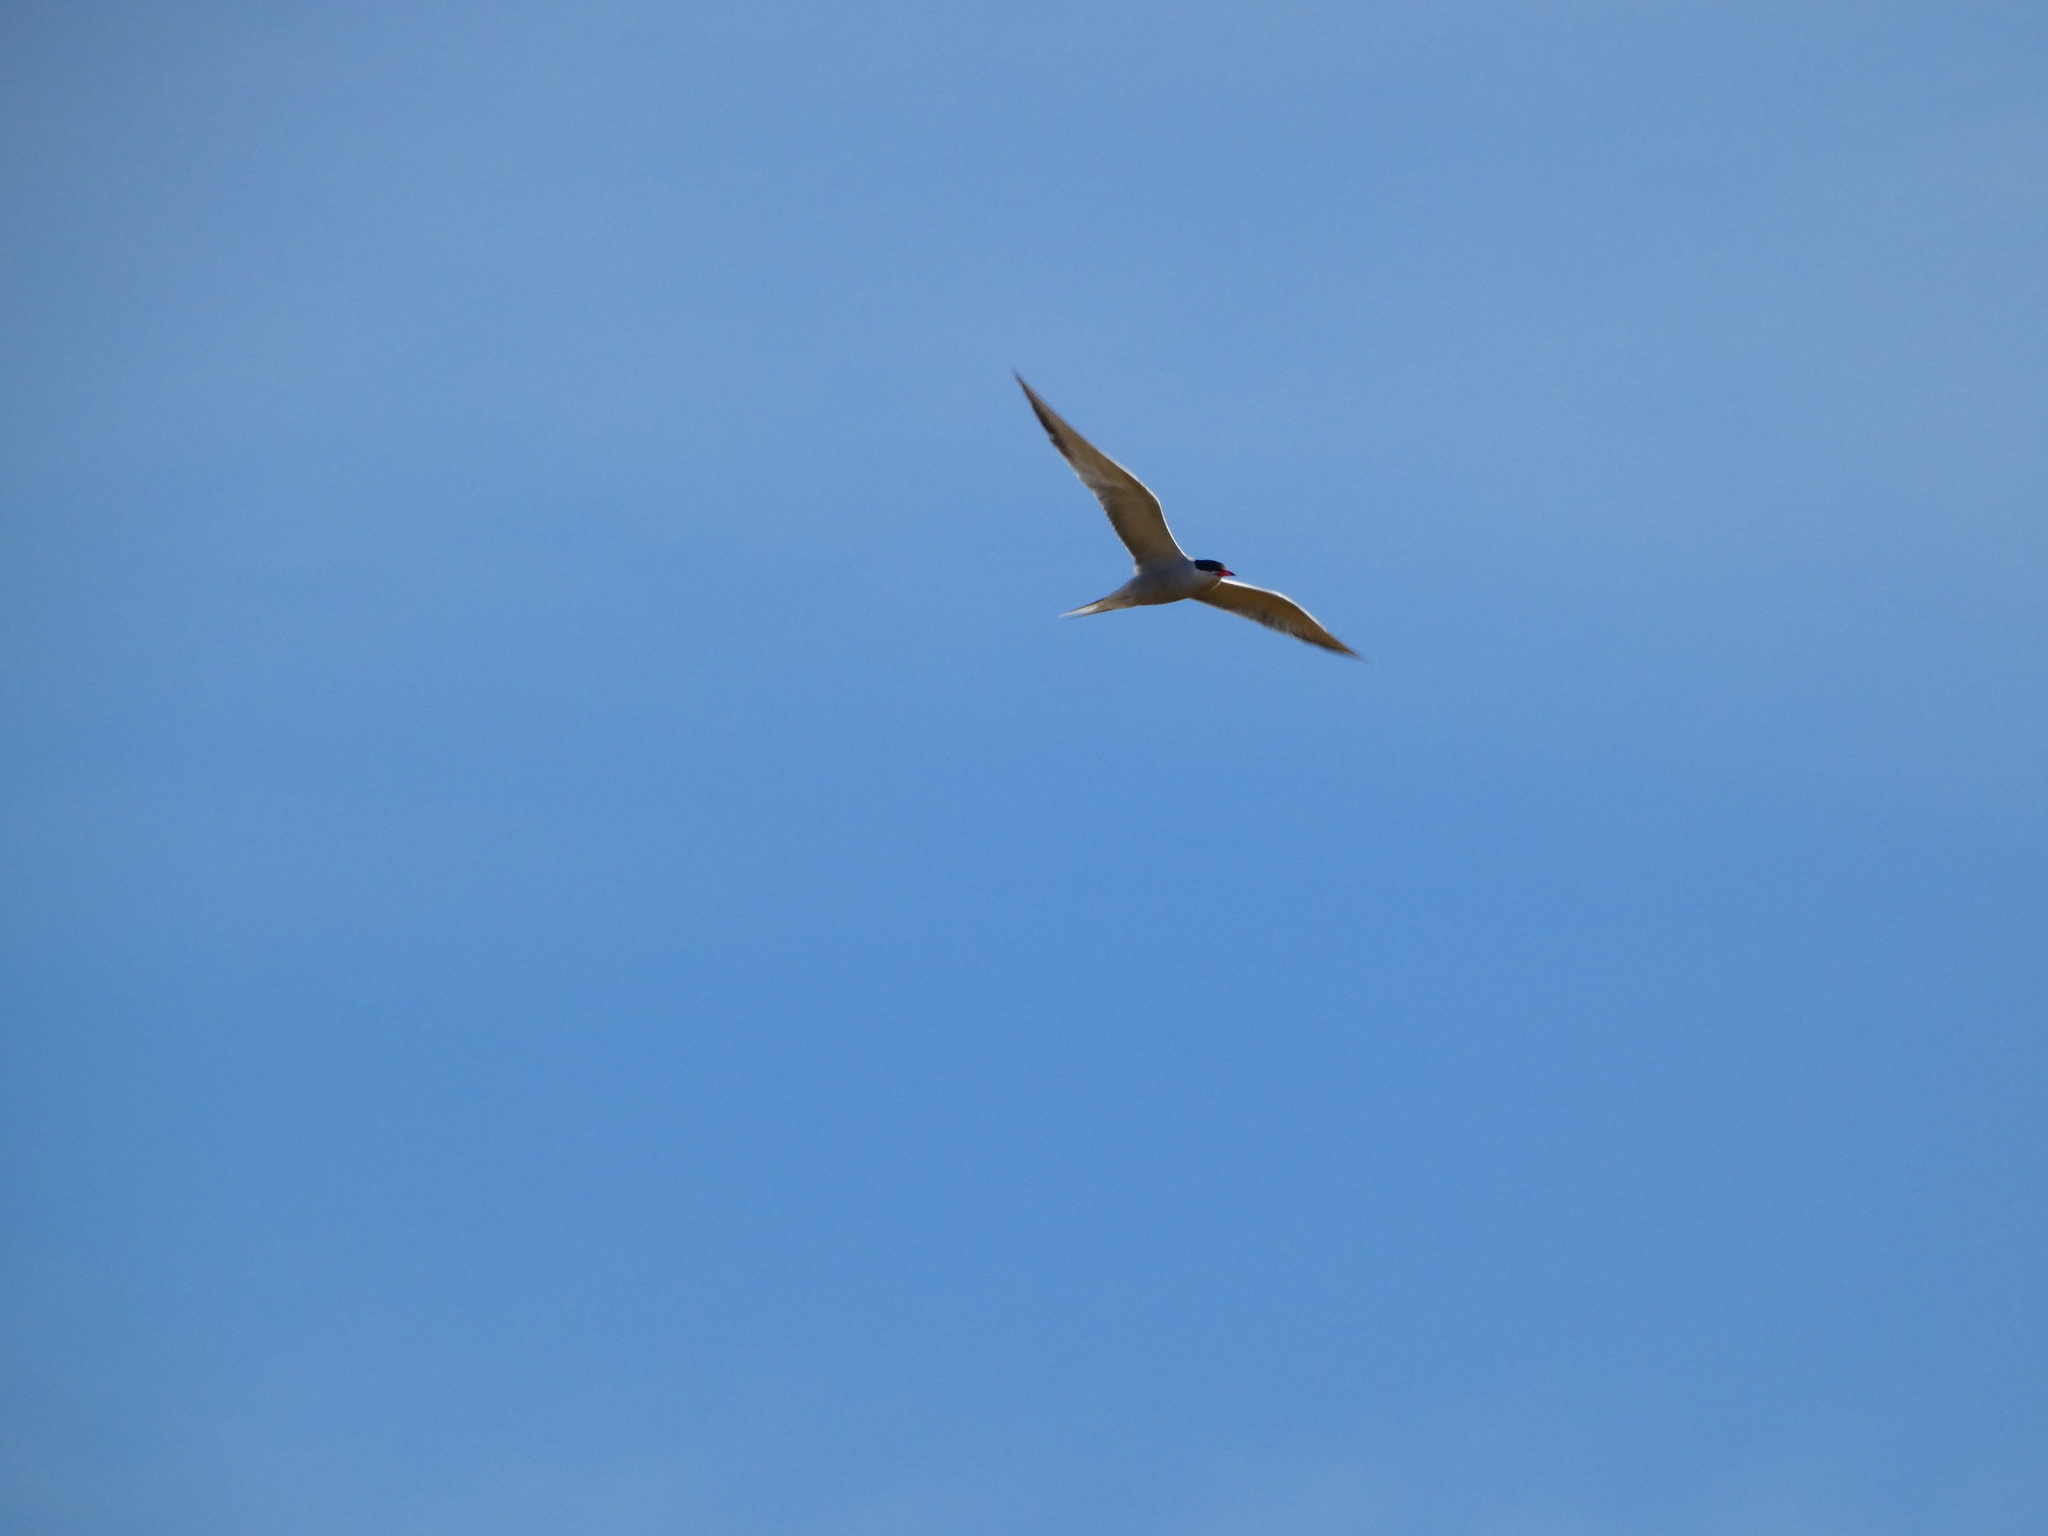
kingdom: Animalia
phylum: Chordata
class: Aves
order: Charadriiformes
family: Laridae
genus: Sterna
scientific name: Sterna hirundo
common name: Common tern
